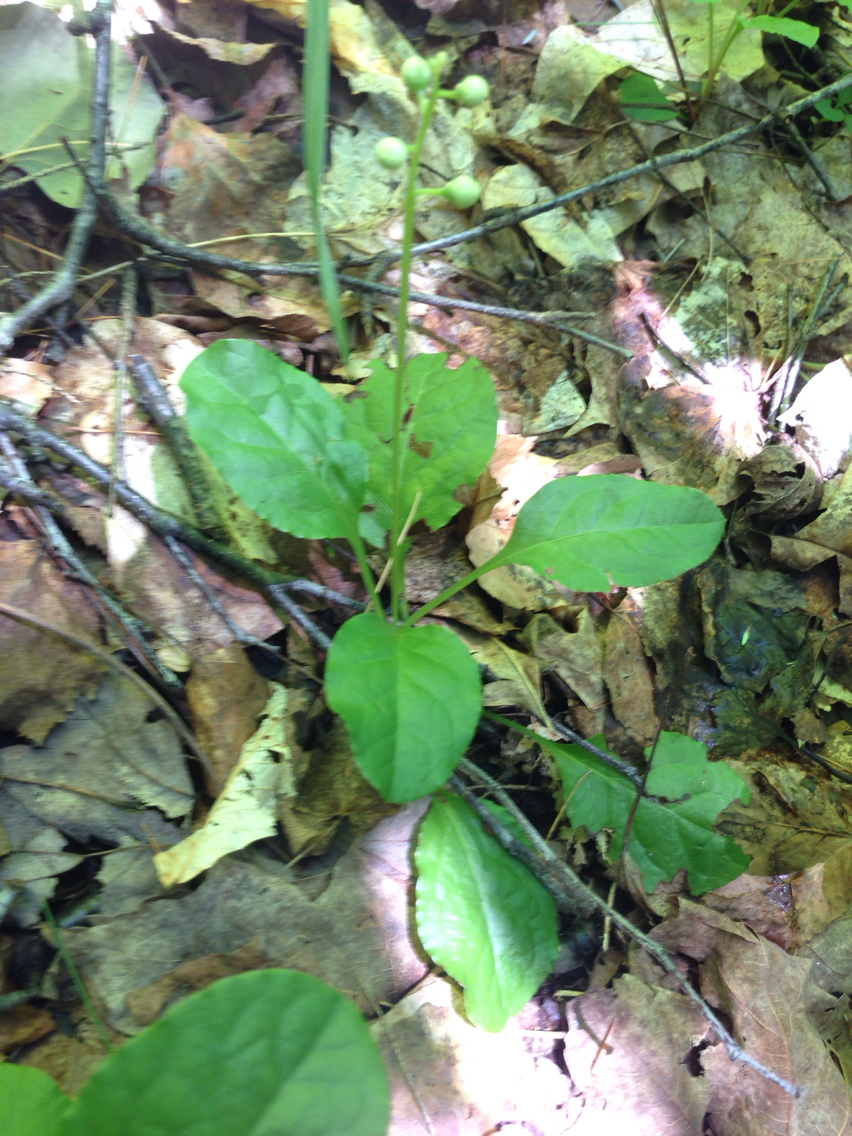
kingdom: Plantae
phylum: Tracheophyta
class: Magnoliopsida
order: Ericales
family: Ericaceae
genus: Pyrola
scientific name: Pyrola elliptica
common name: Shinleaf
